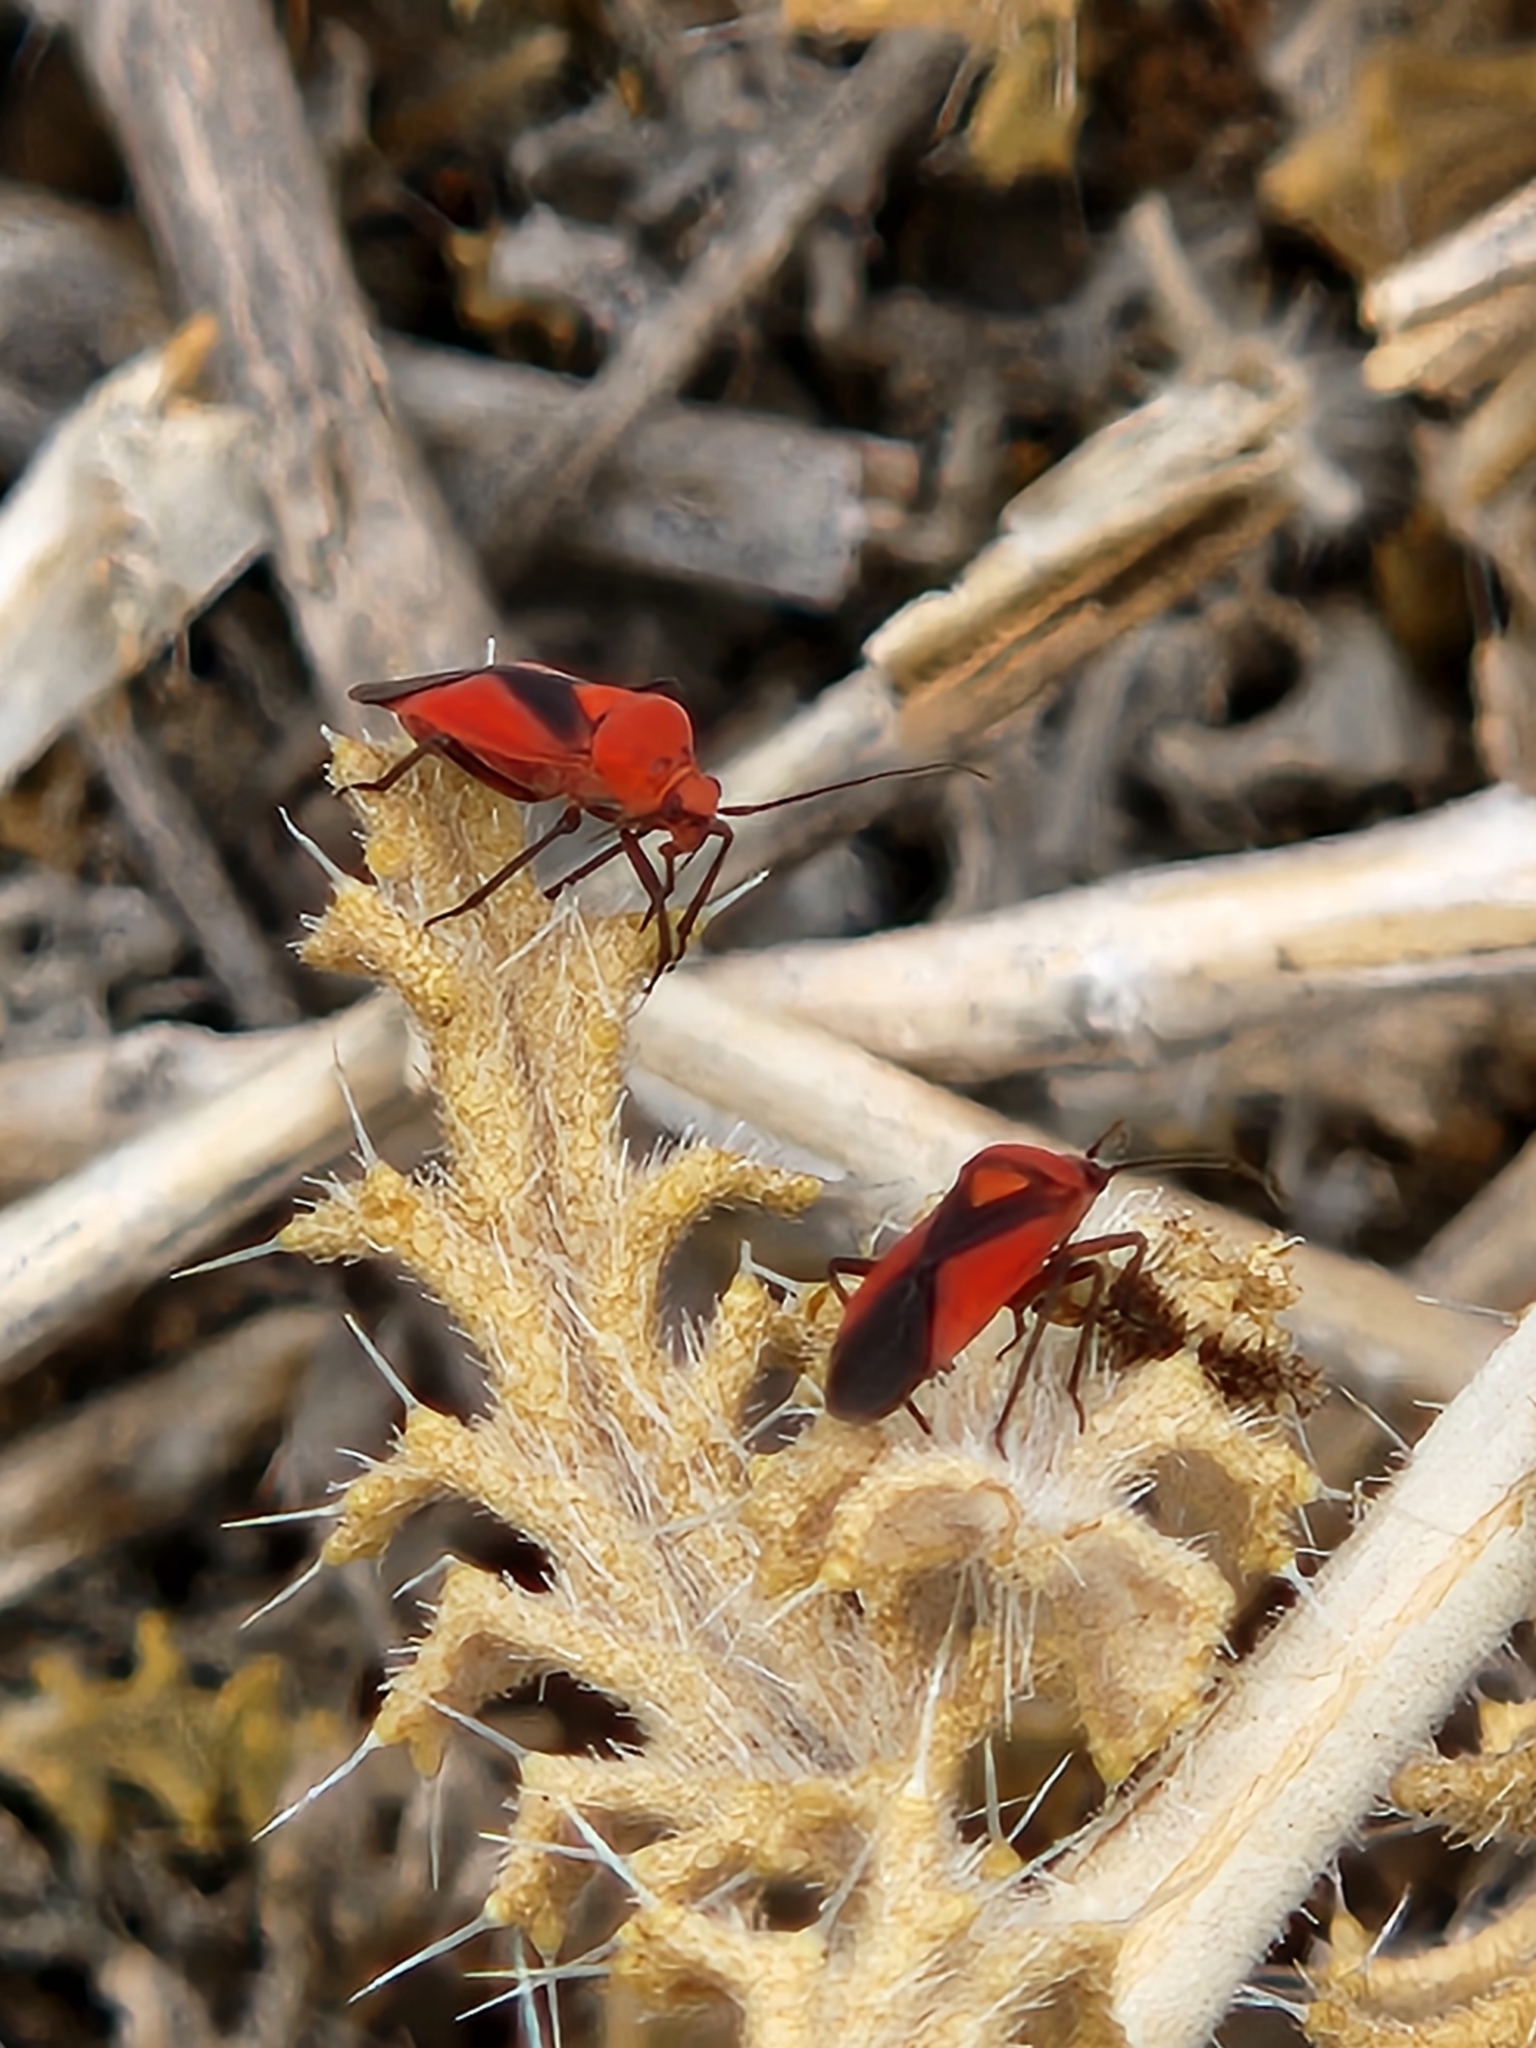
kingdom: Animalia
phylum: Arthropoda
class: Insecta
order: Hemiptera
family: Miridae
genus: Oncerometopus
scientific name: Oncerometopus nigriclavus
